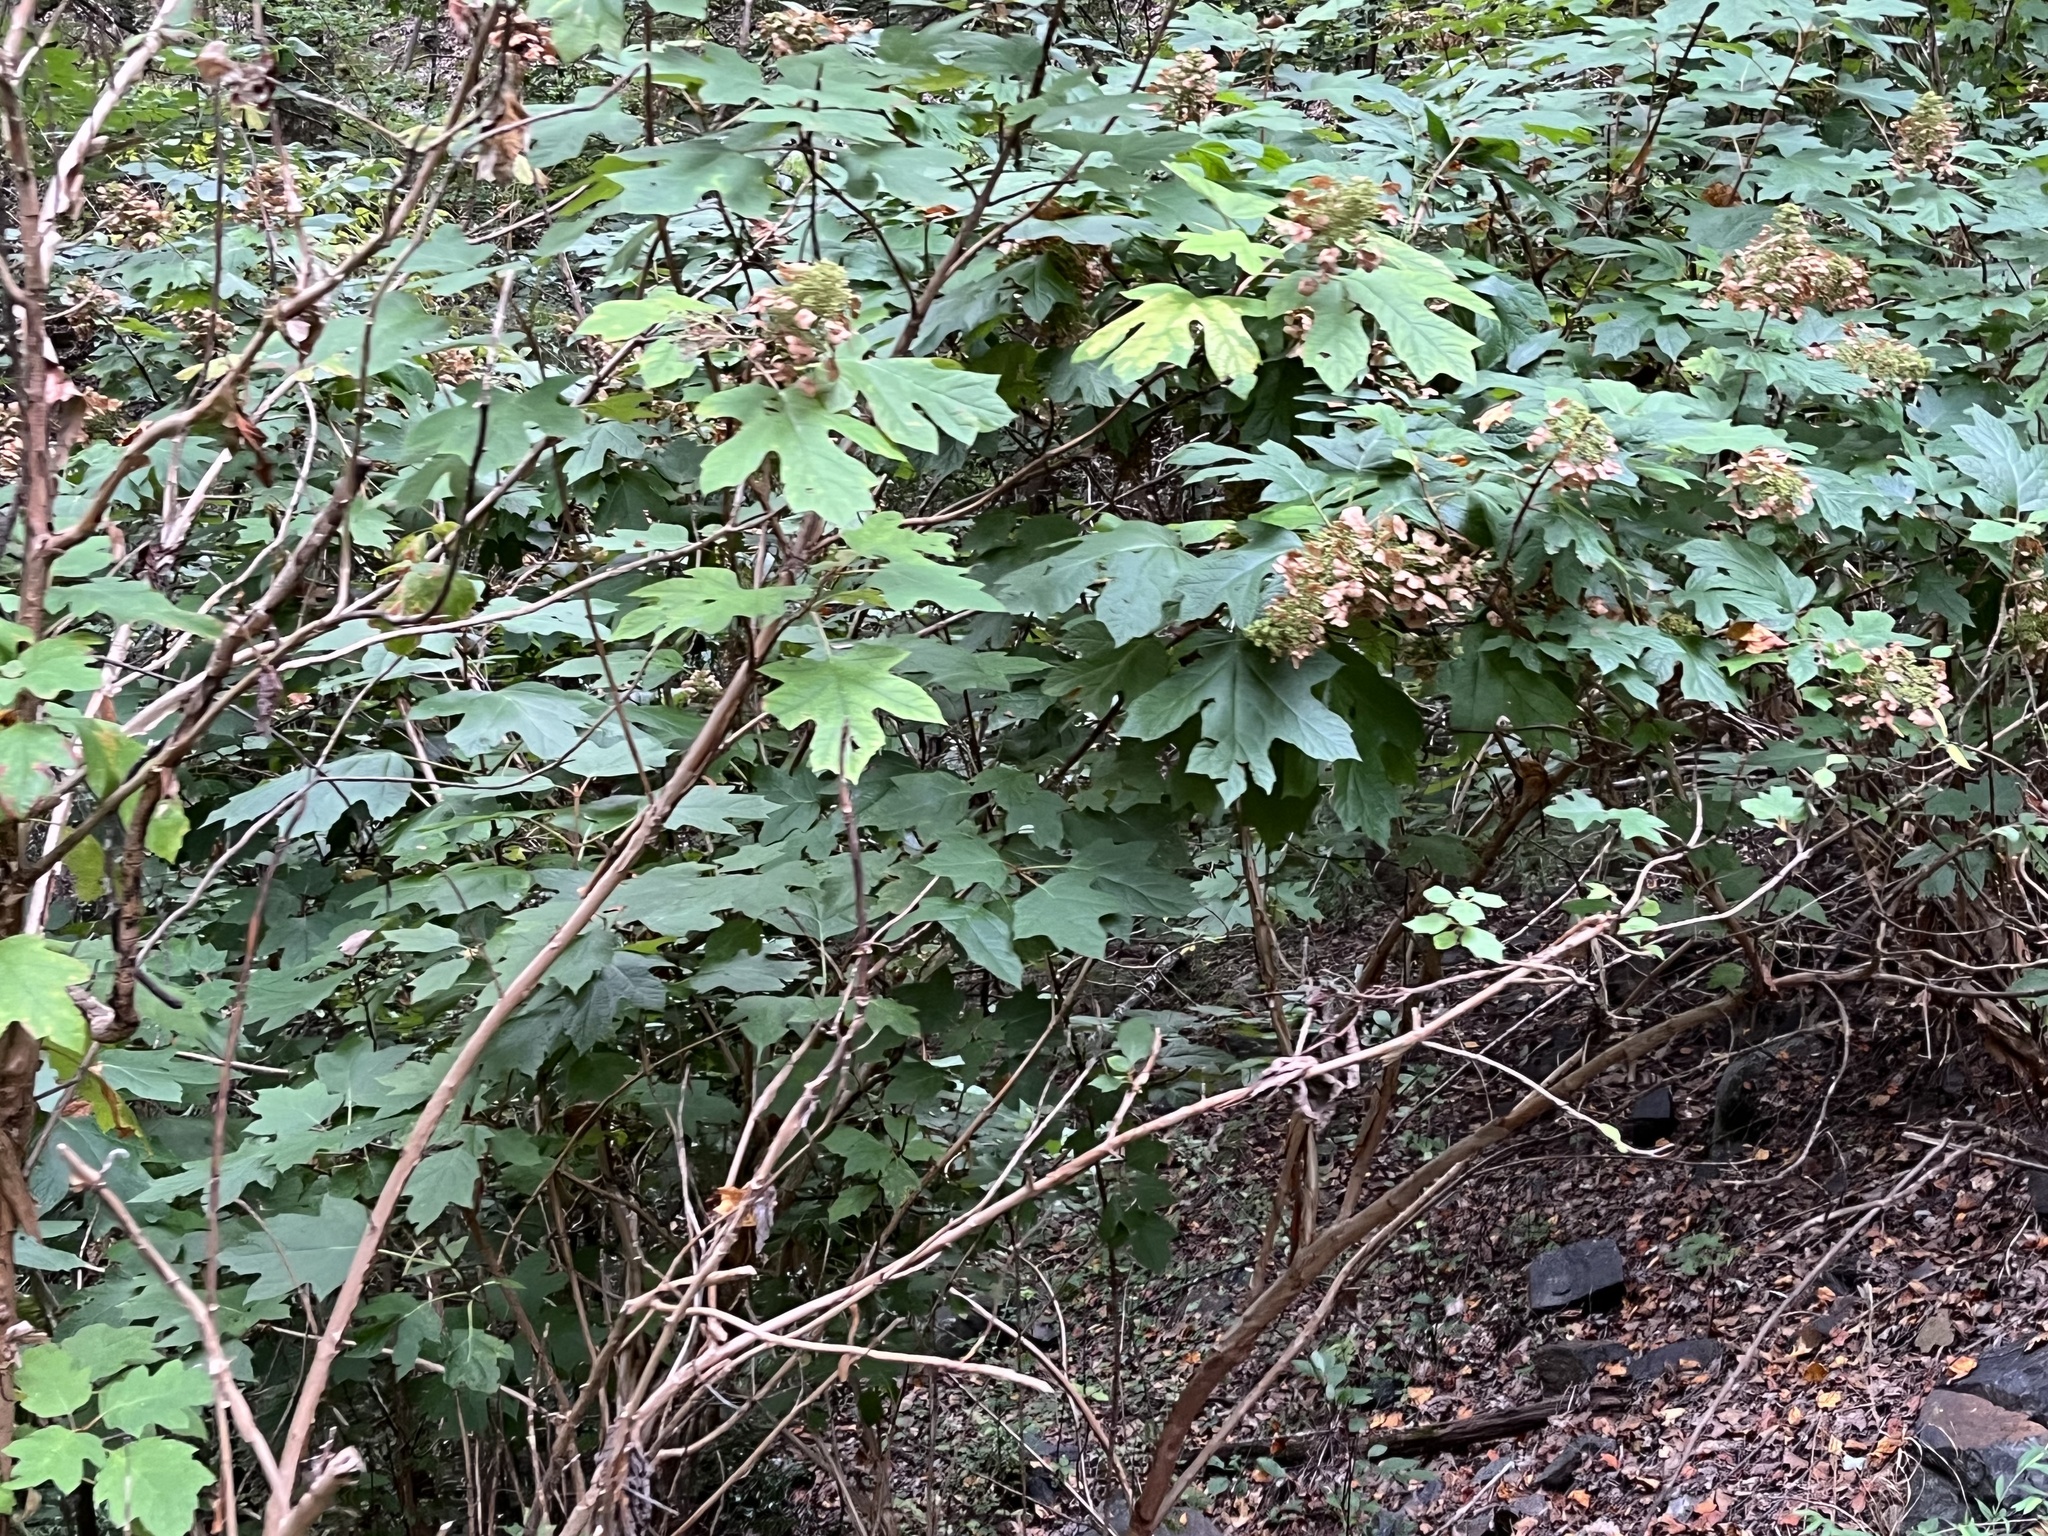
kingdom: Plantae
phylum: Tracheophyta
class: Magnoliopsida
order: Cornales
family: Hydrangeaceae
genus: Hydrangea
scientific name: Hydrangea quercifolia
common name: Oak-leaf hydrangea
